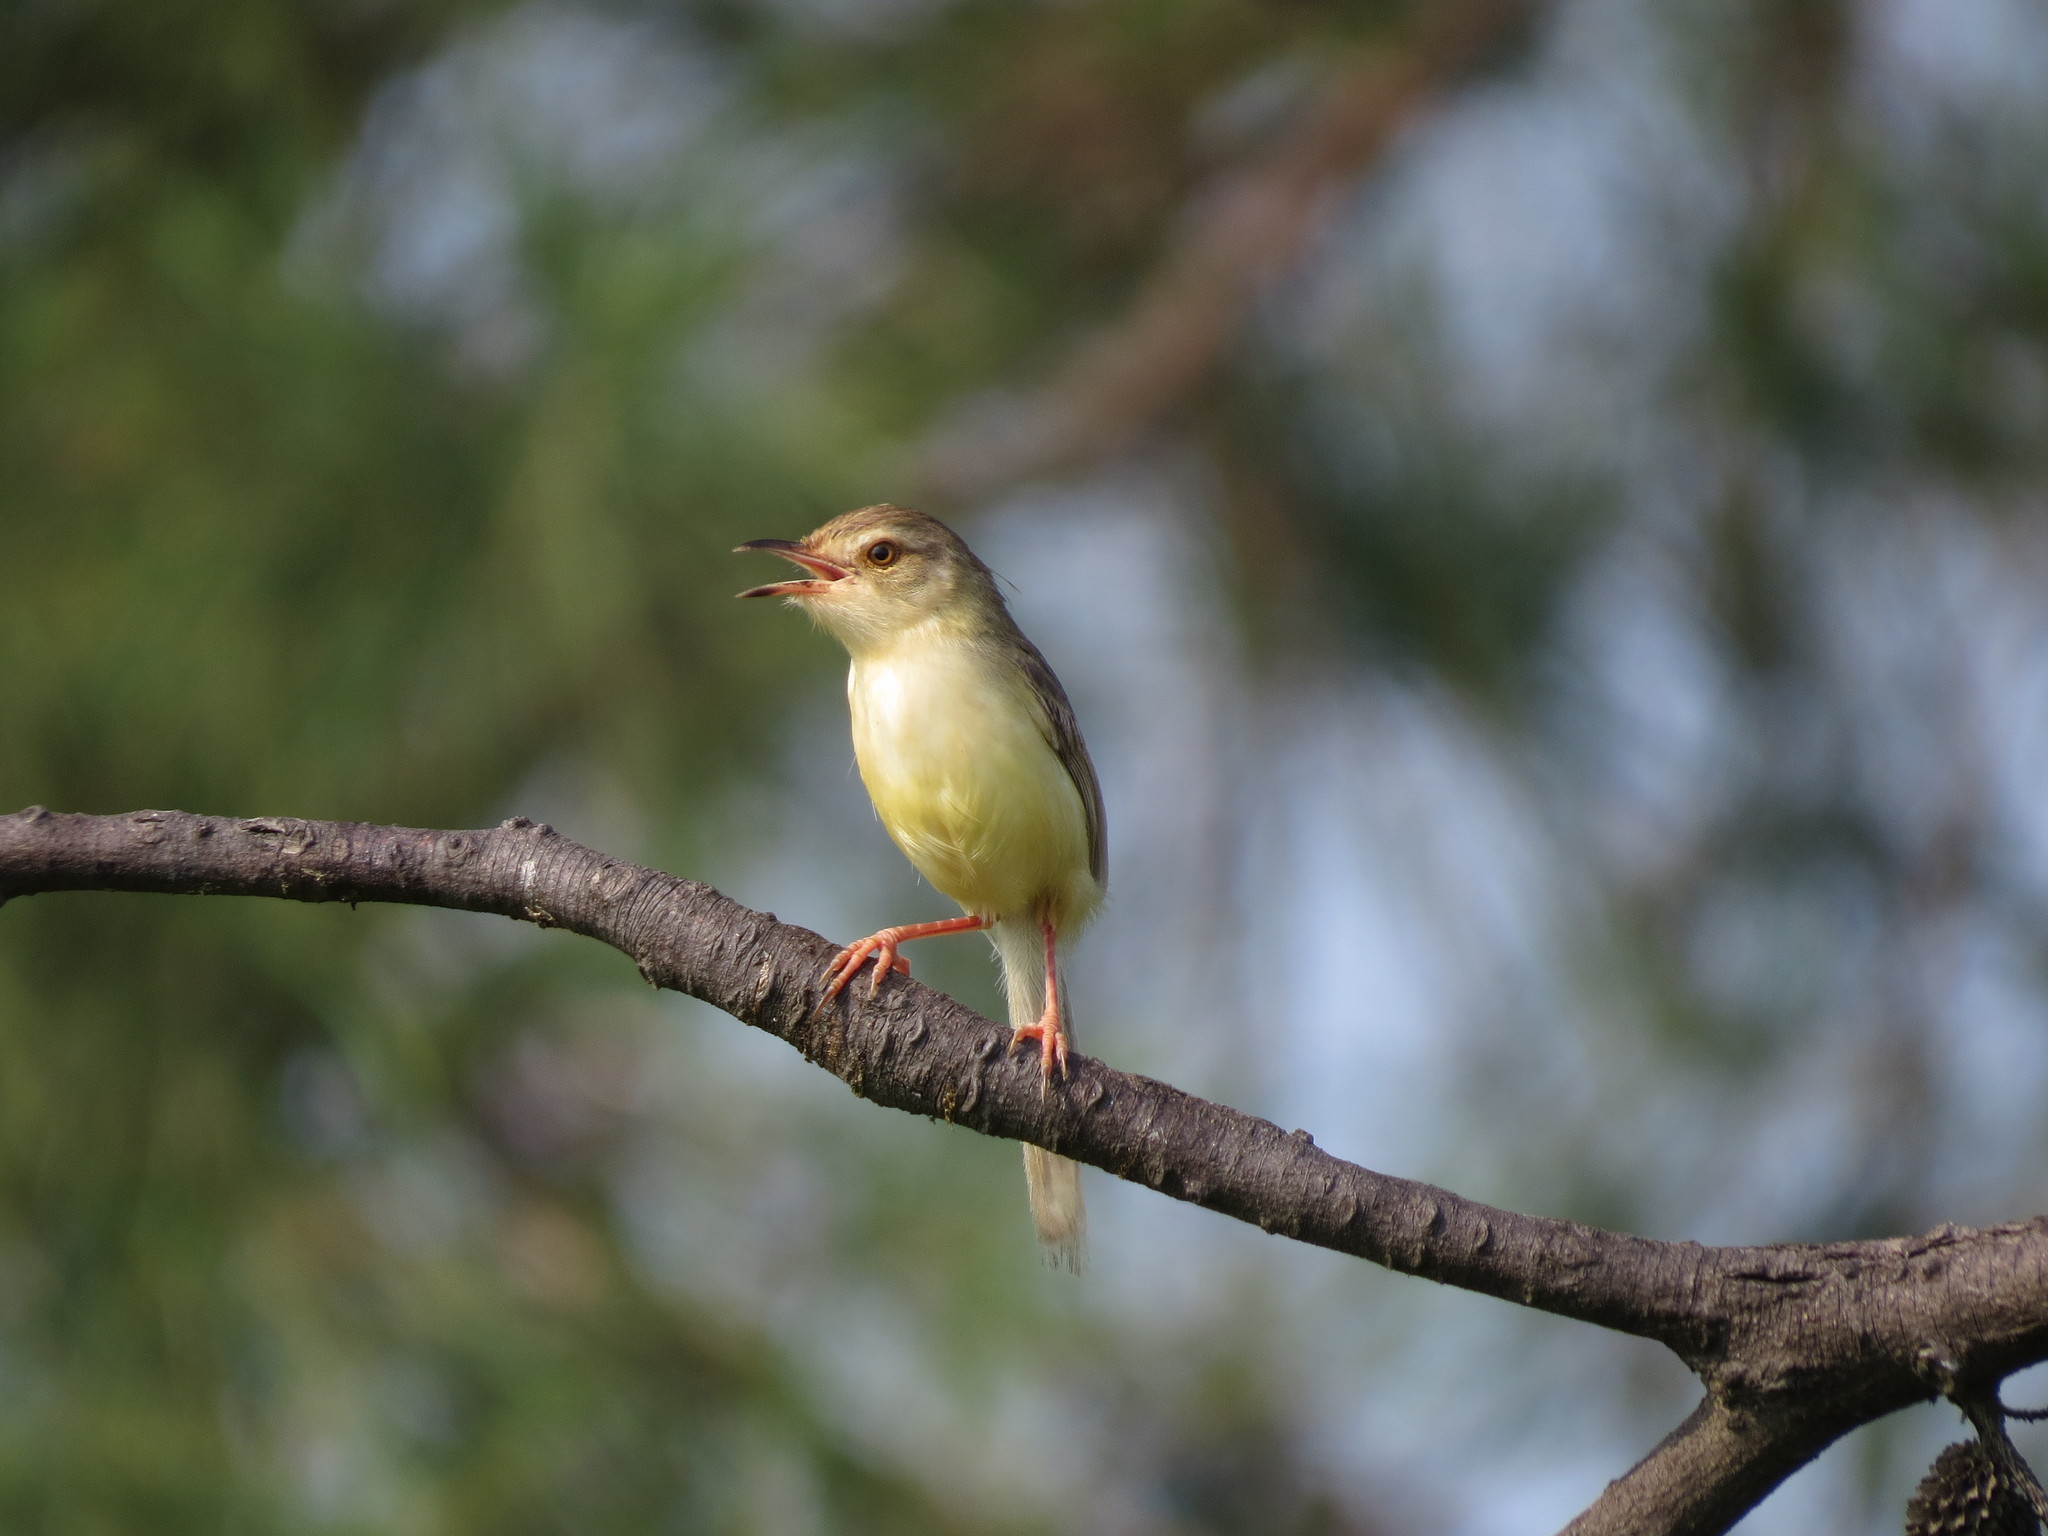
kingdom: Animalia
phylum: Chordata
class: Aves
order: Passeriformes
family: Cisticolidae
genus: Prinia
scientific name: Prinia inornata
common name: Plain prinia
